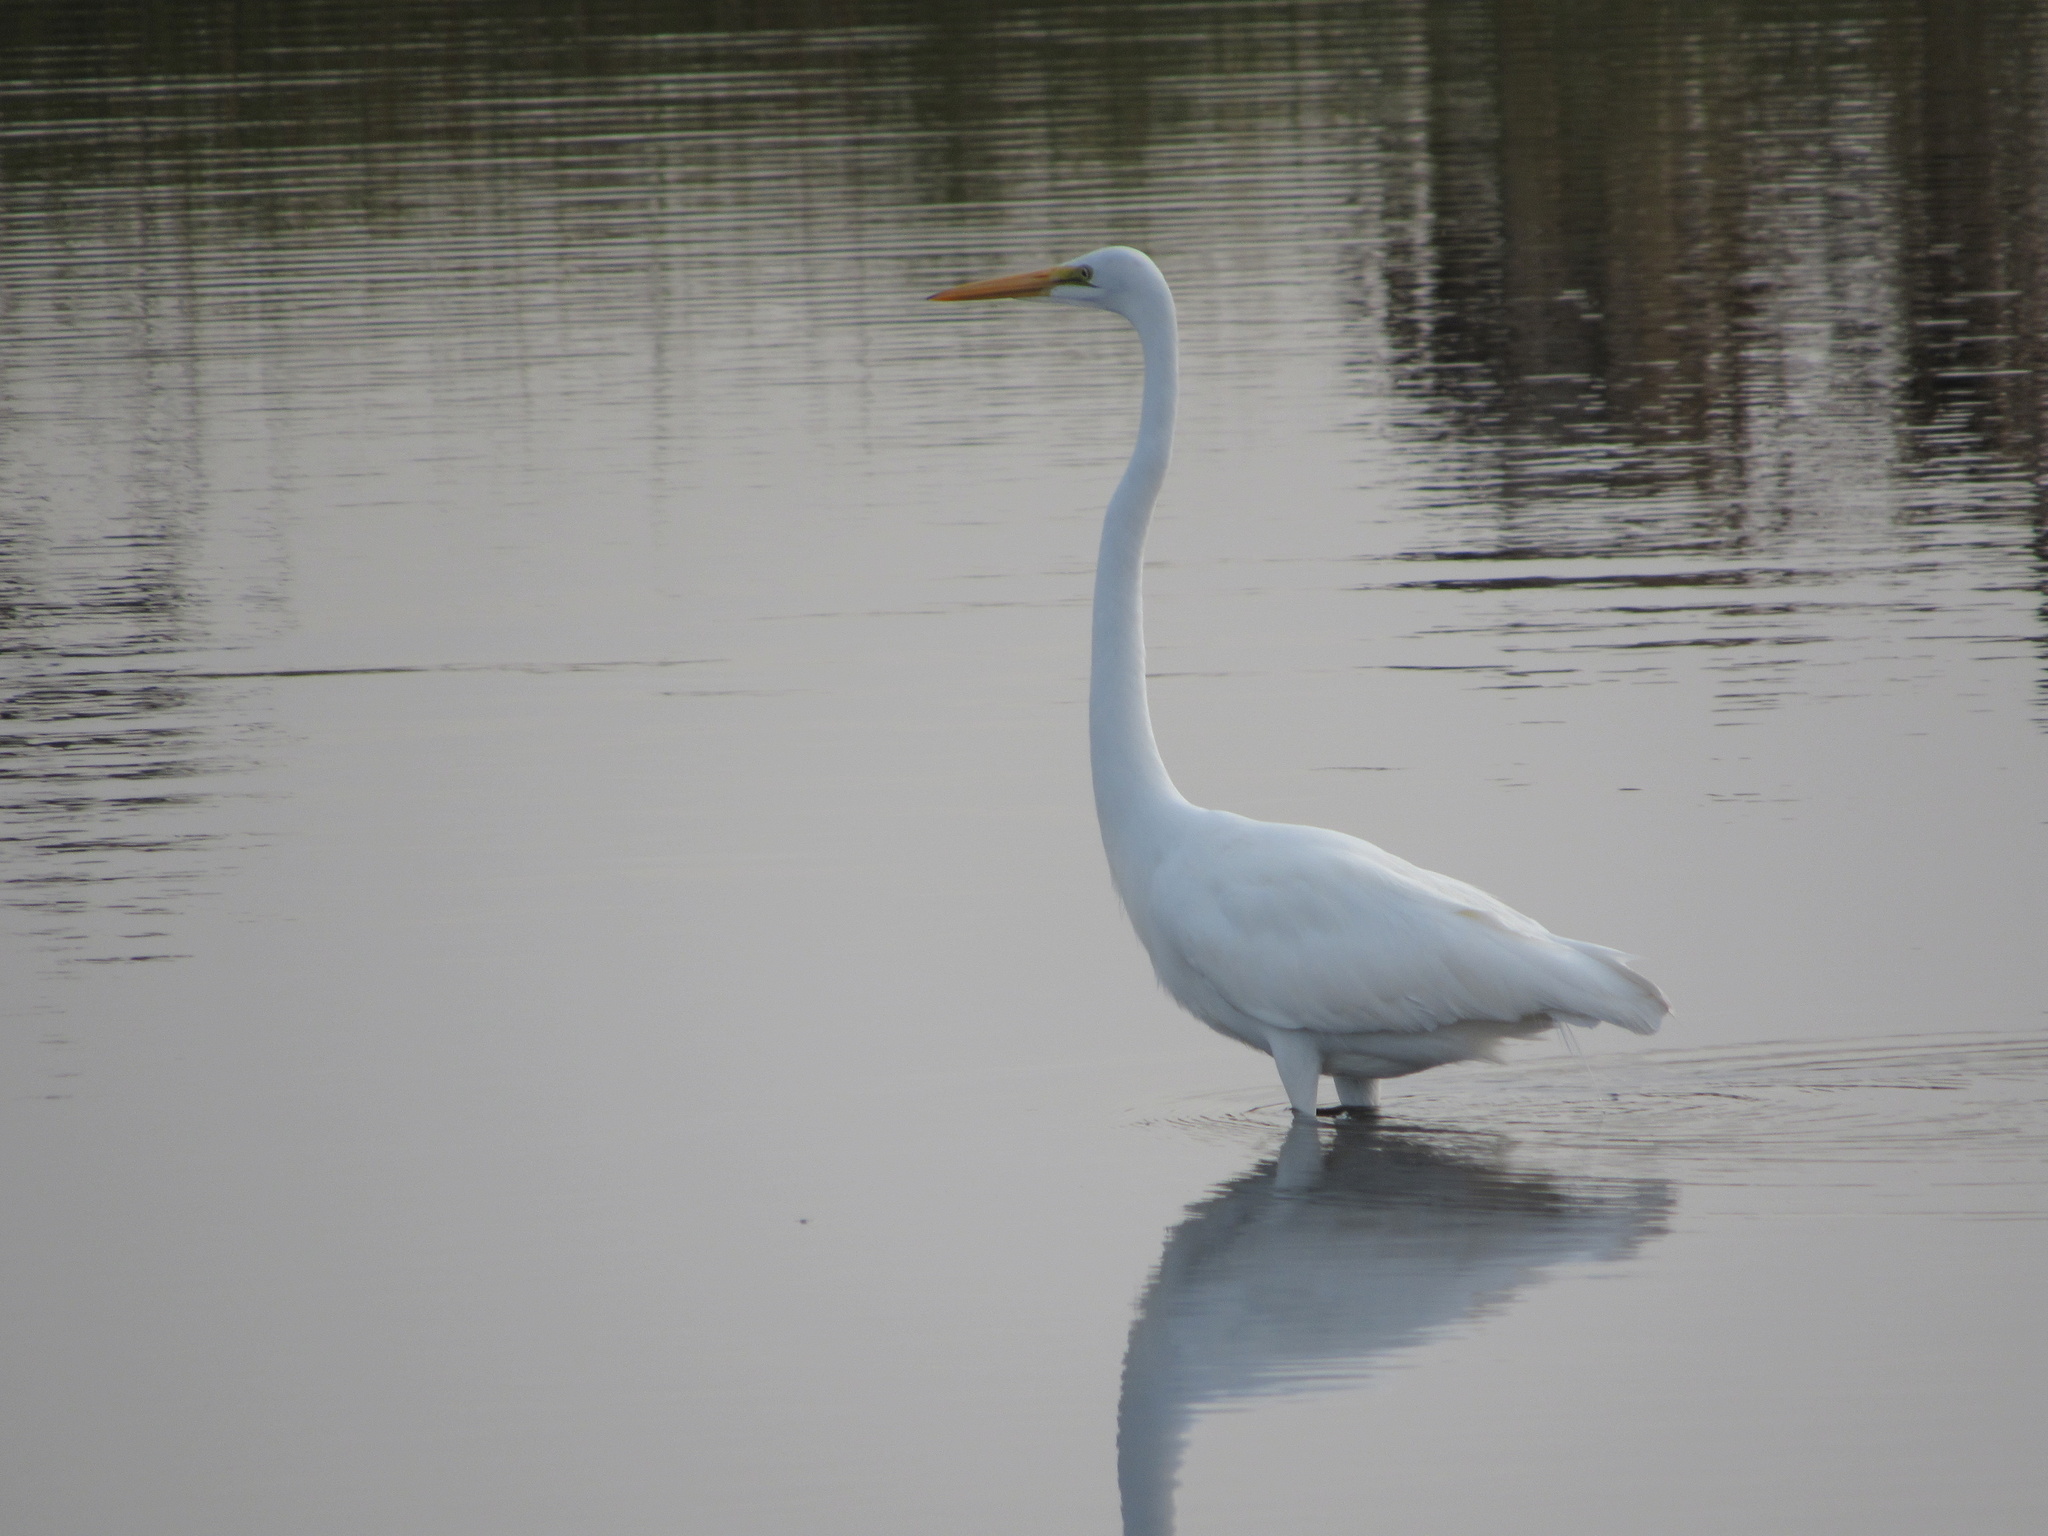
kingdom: Animalia
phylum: Chordata
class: Aves
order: Pelecaniformes
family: Ardeidae
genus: Ardea
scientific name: Ardea alba
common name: Great egret
